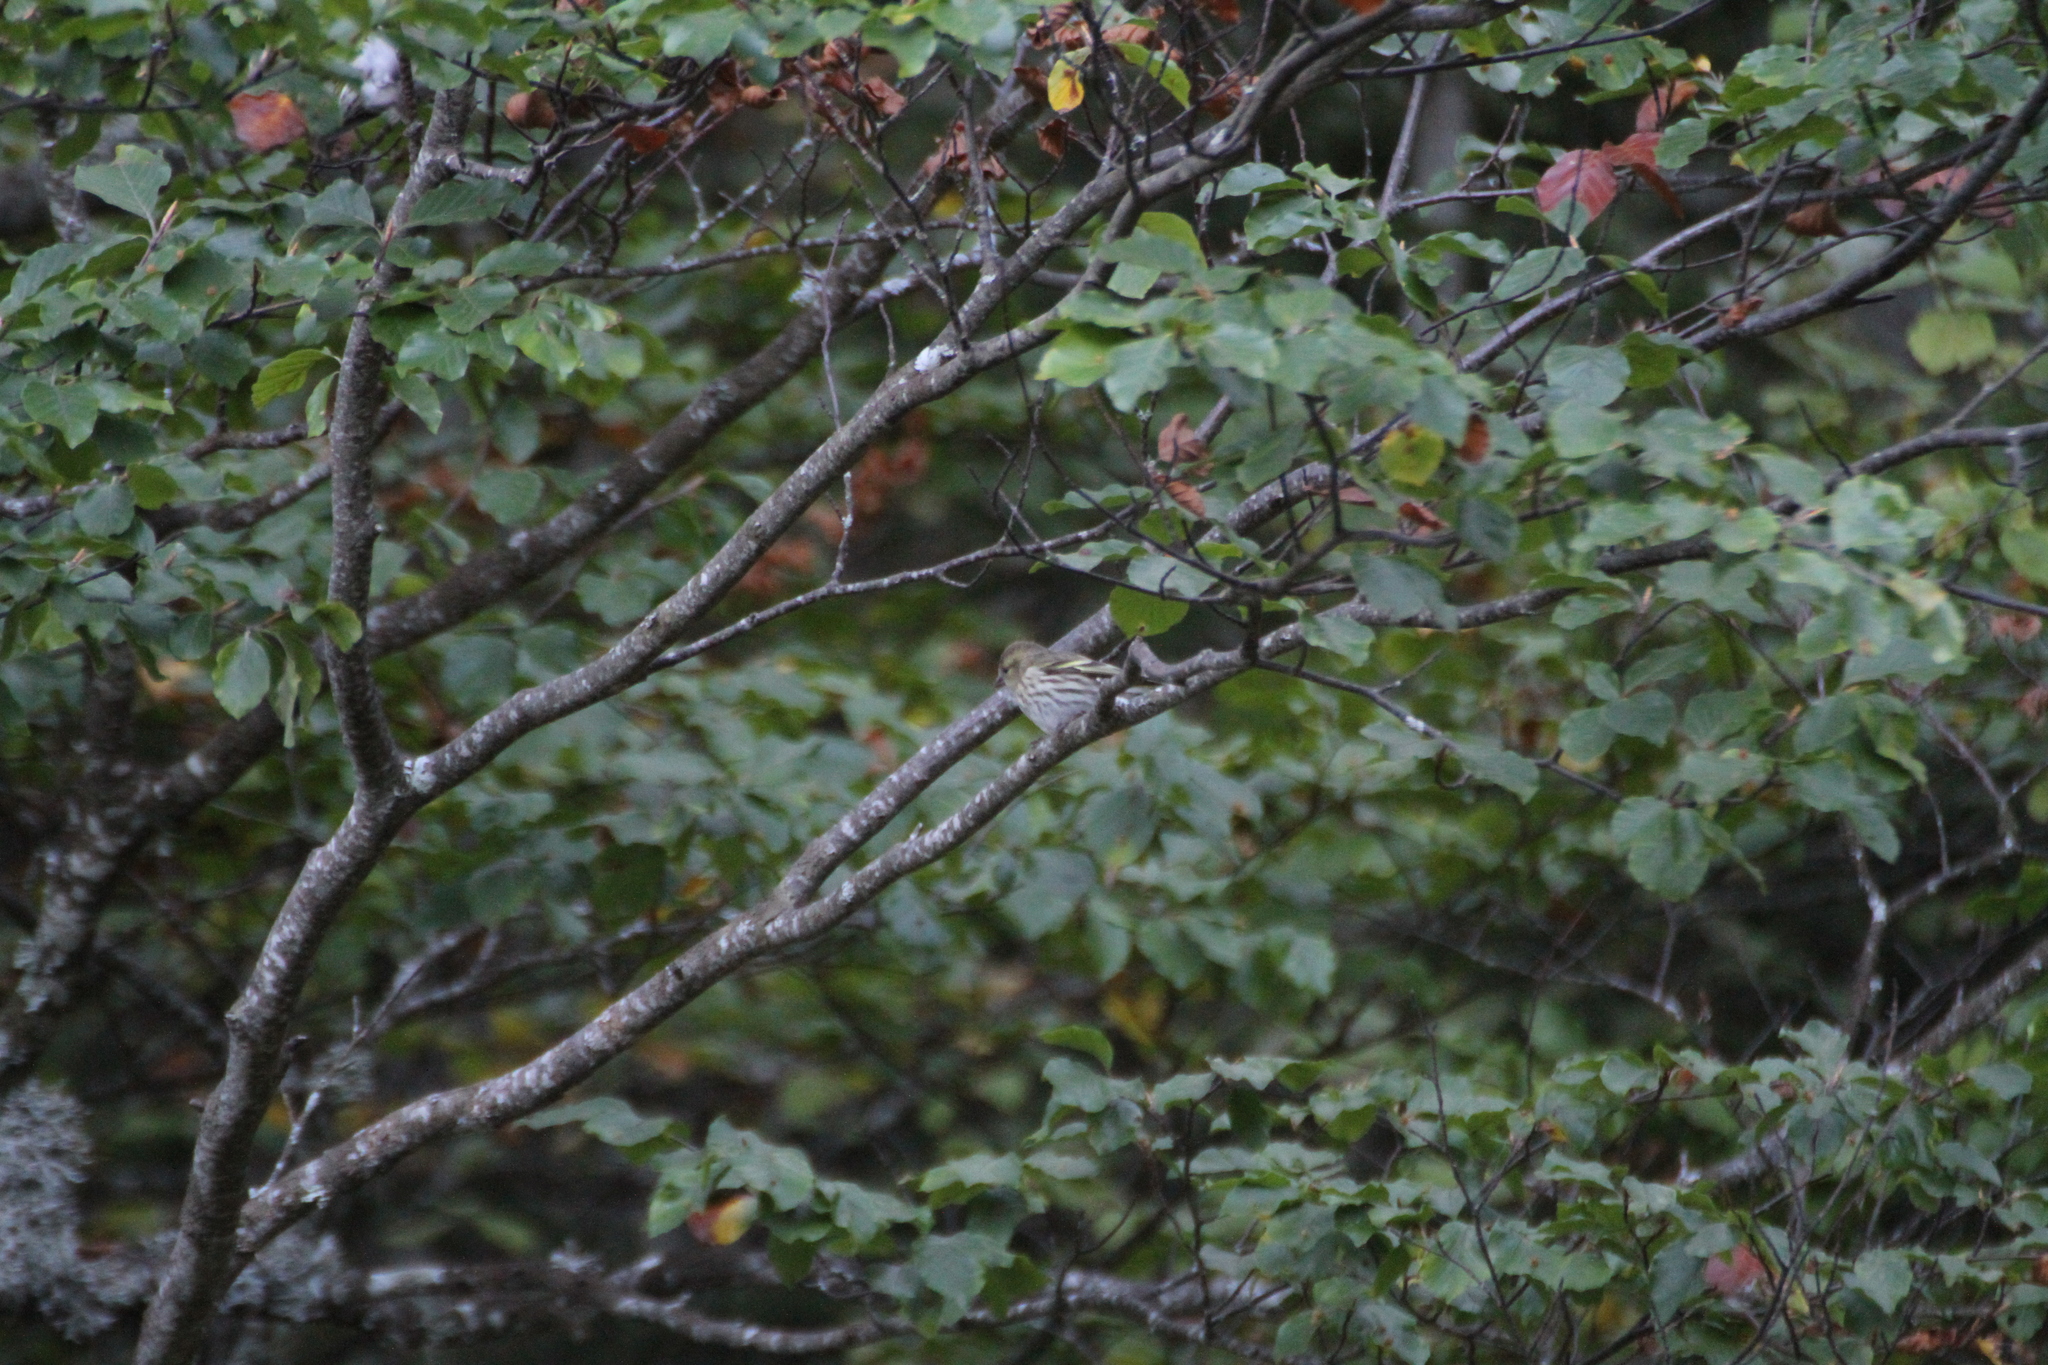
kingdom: Animalia
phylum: Chordata
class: Aves
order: Passeriformes
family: Fringillidae
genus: Spinus
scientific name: Spinus spinus
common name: Eurasian siskin
